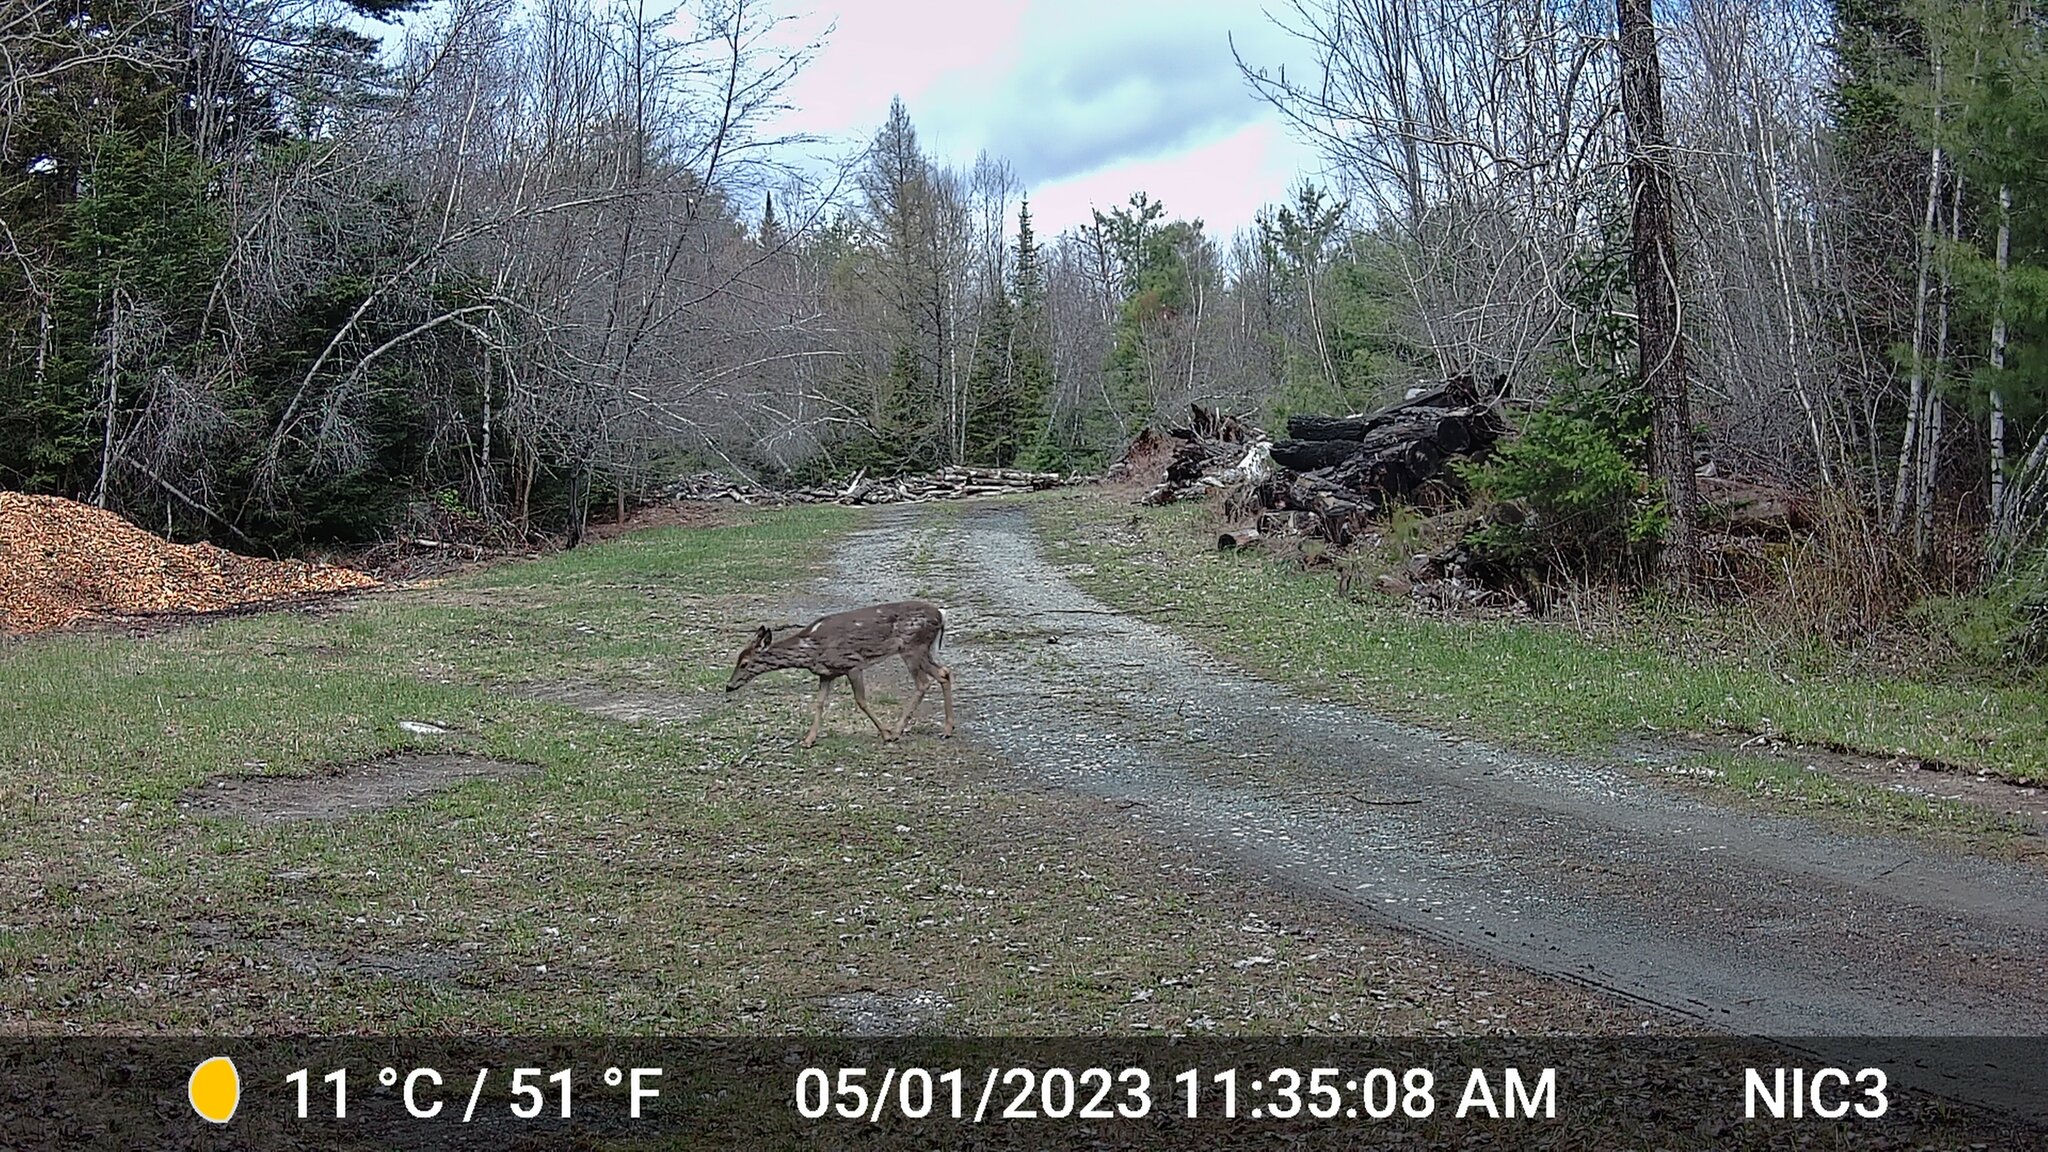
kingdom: Animalia
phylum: Chordata
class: Mammalia
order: Artiodactyla
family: Cervidae
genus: Odocoileus
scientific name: Odocoileus virginianus
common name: White-tailed deer
